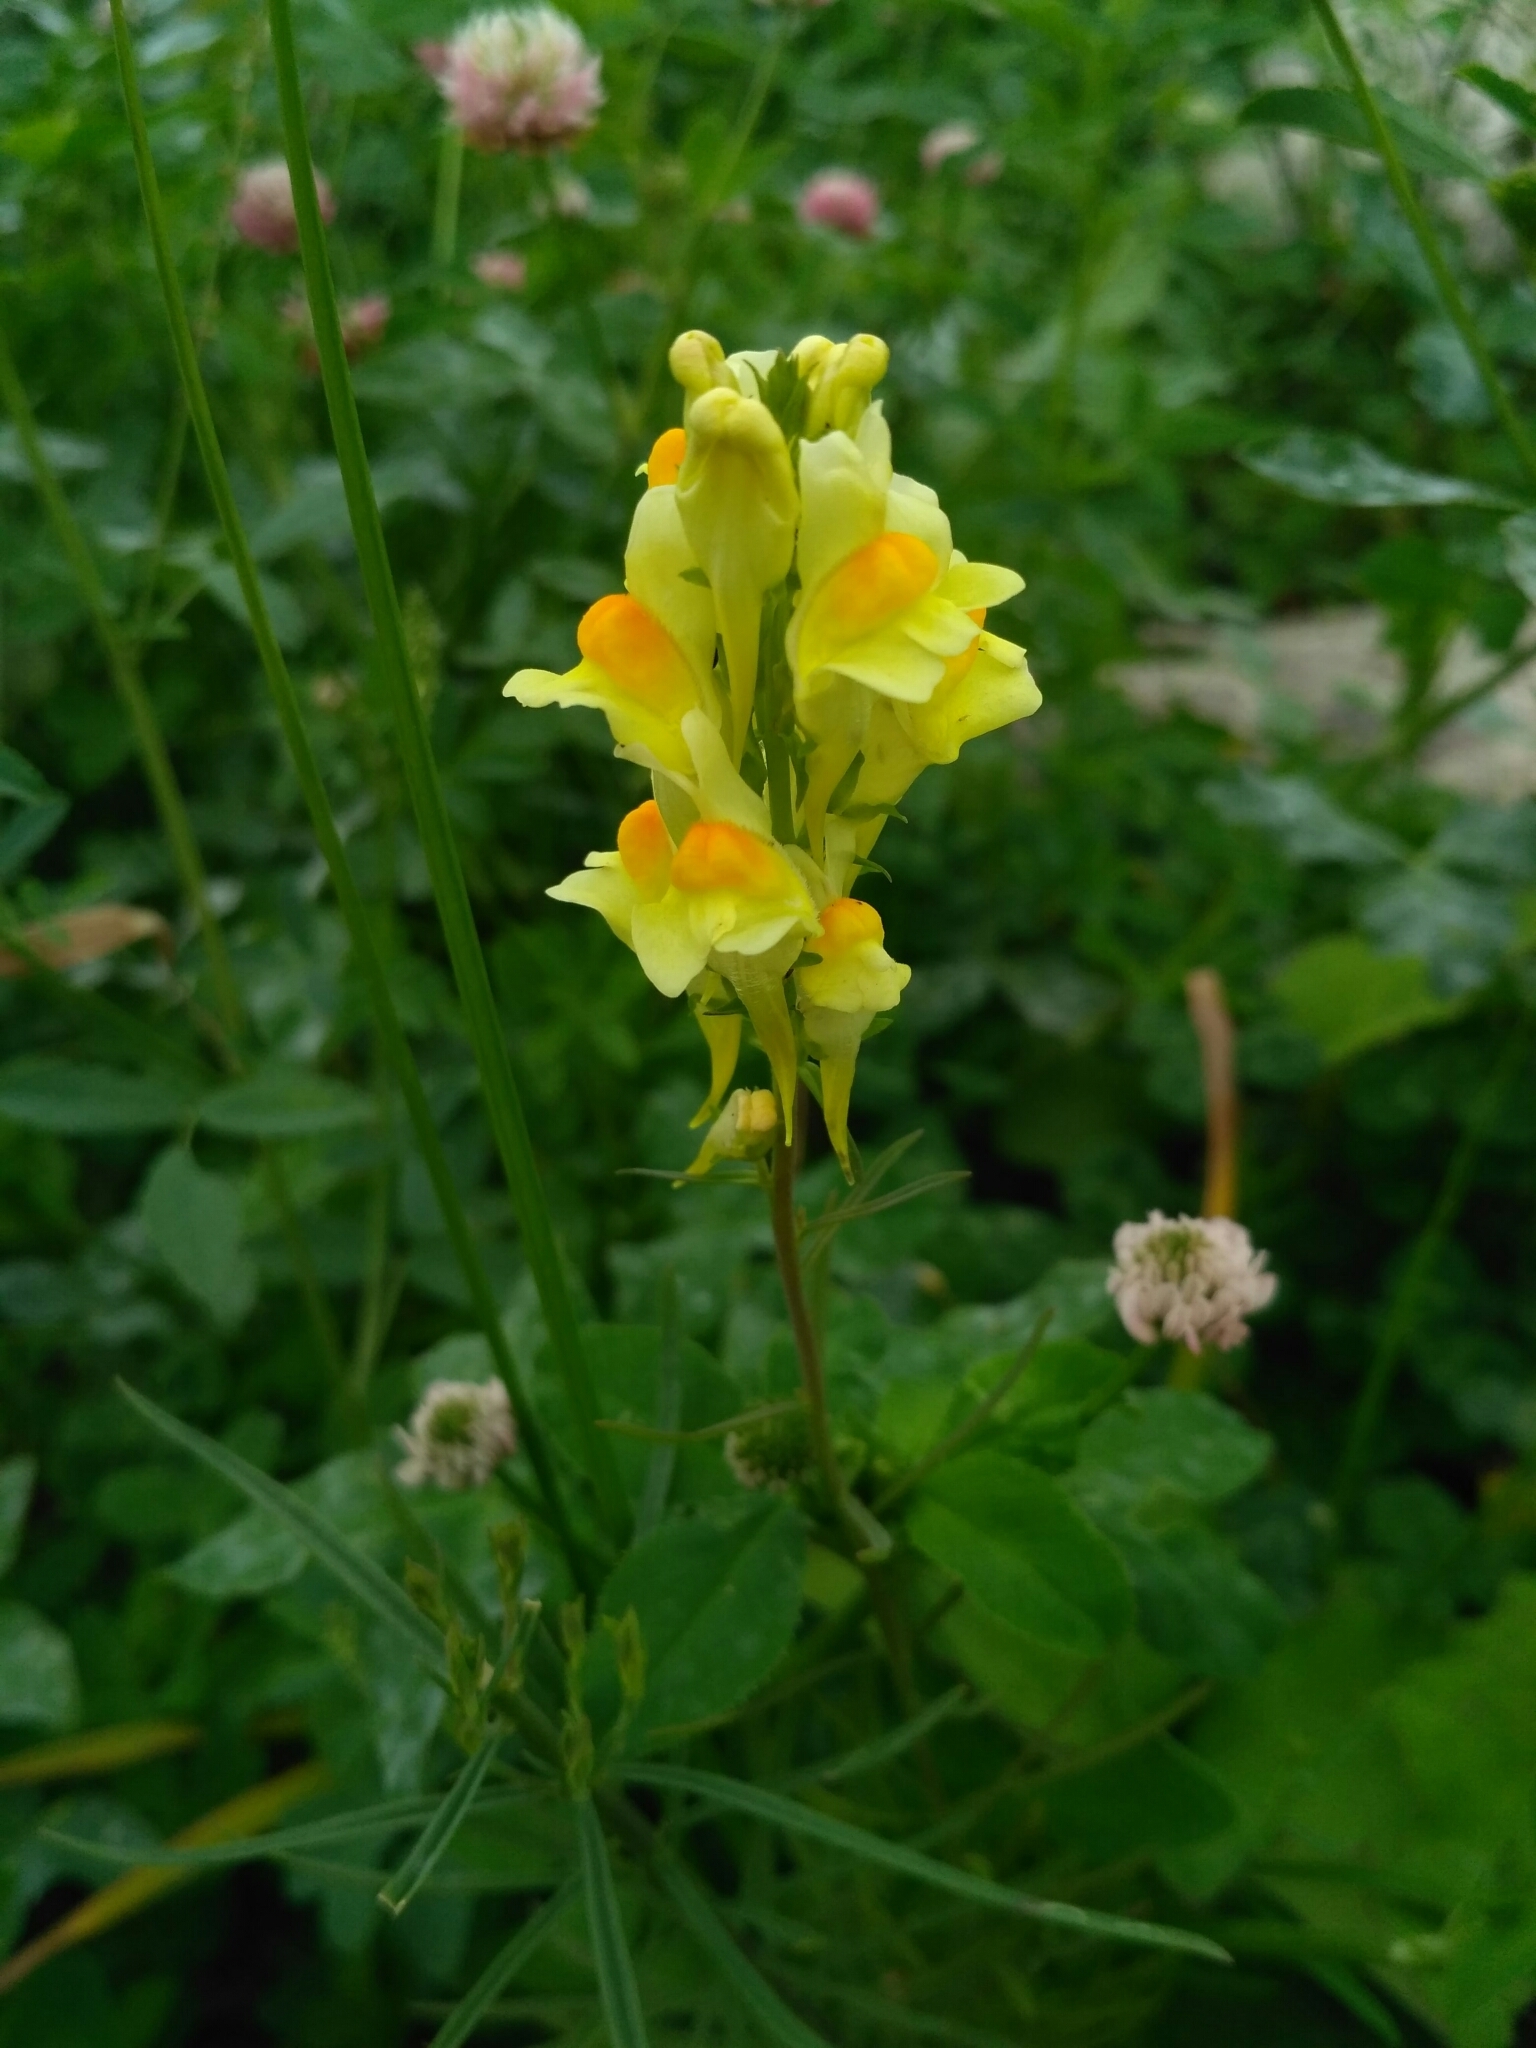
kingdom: Plantae
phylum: Tracheophyta
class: Magnoliopsida
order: Lamiales
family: Plantaginaceae
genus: Linaria
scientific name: Linaria vulgaris
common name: Butter and eggs
